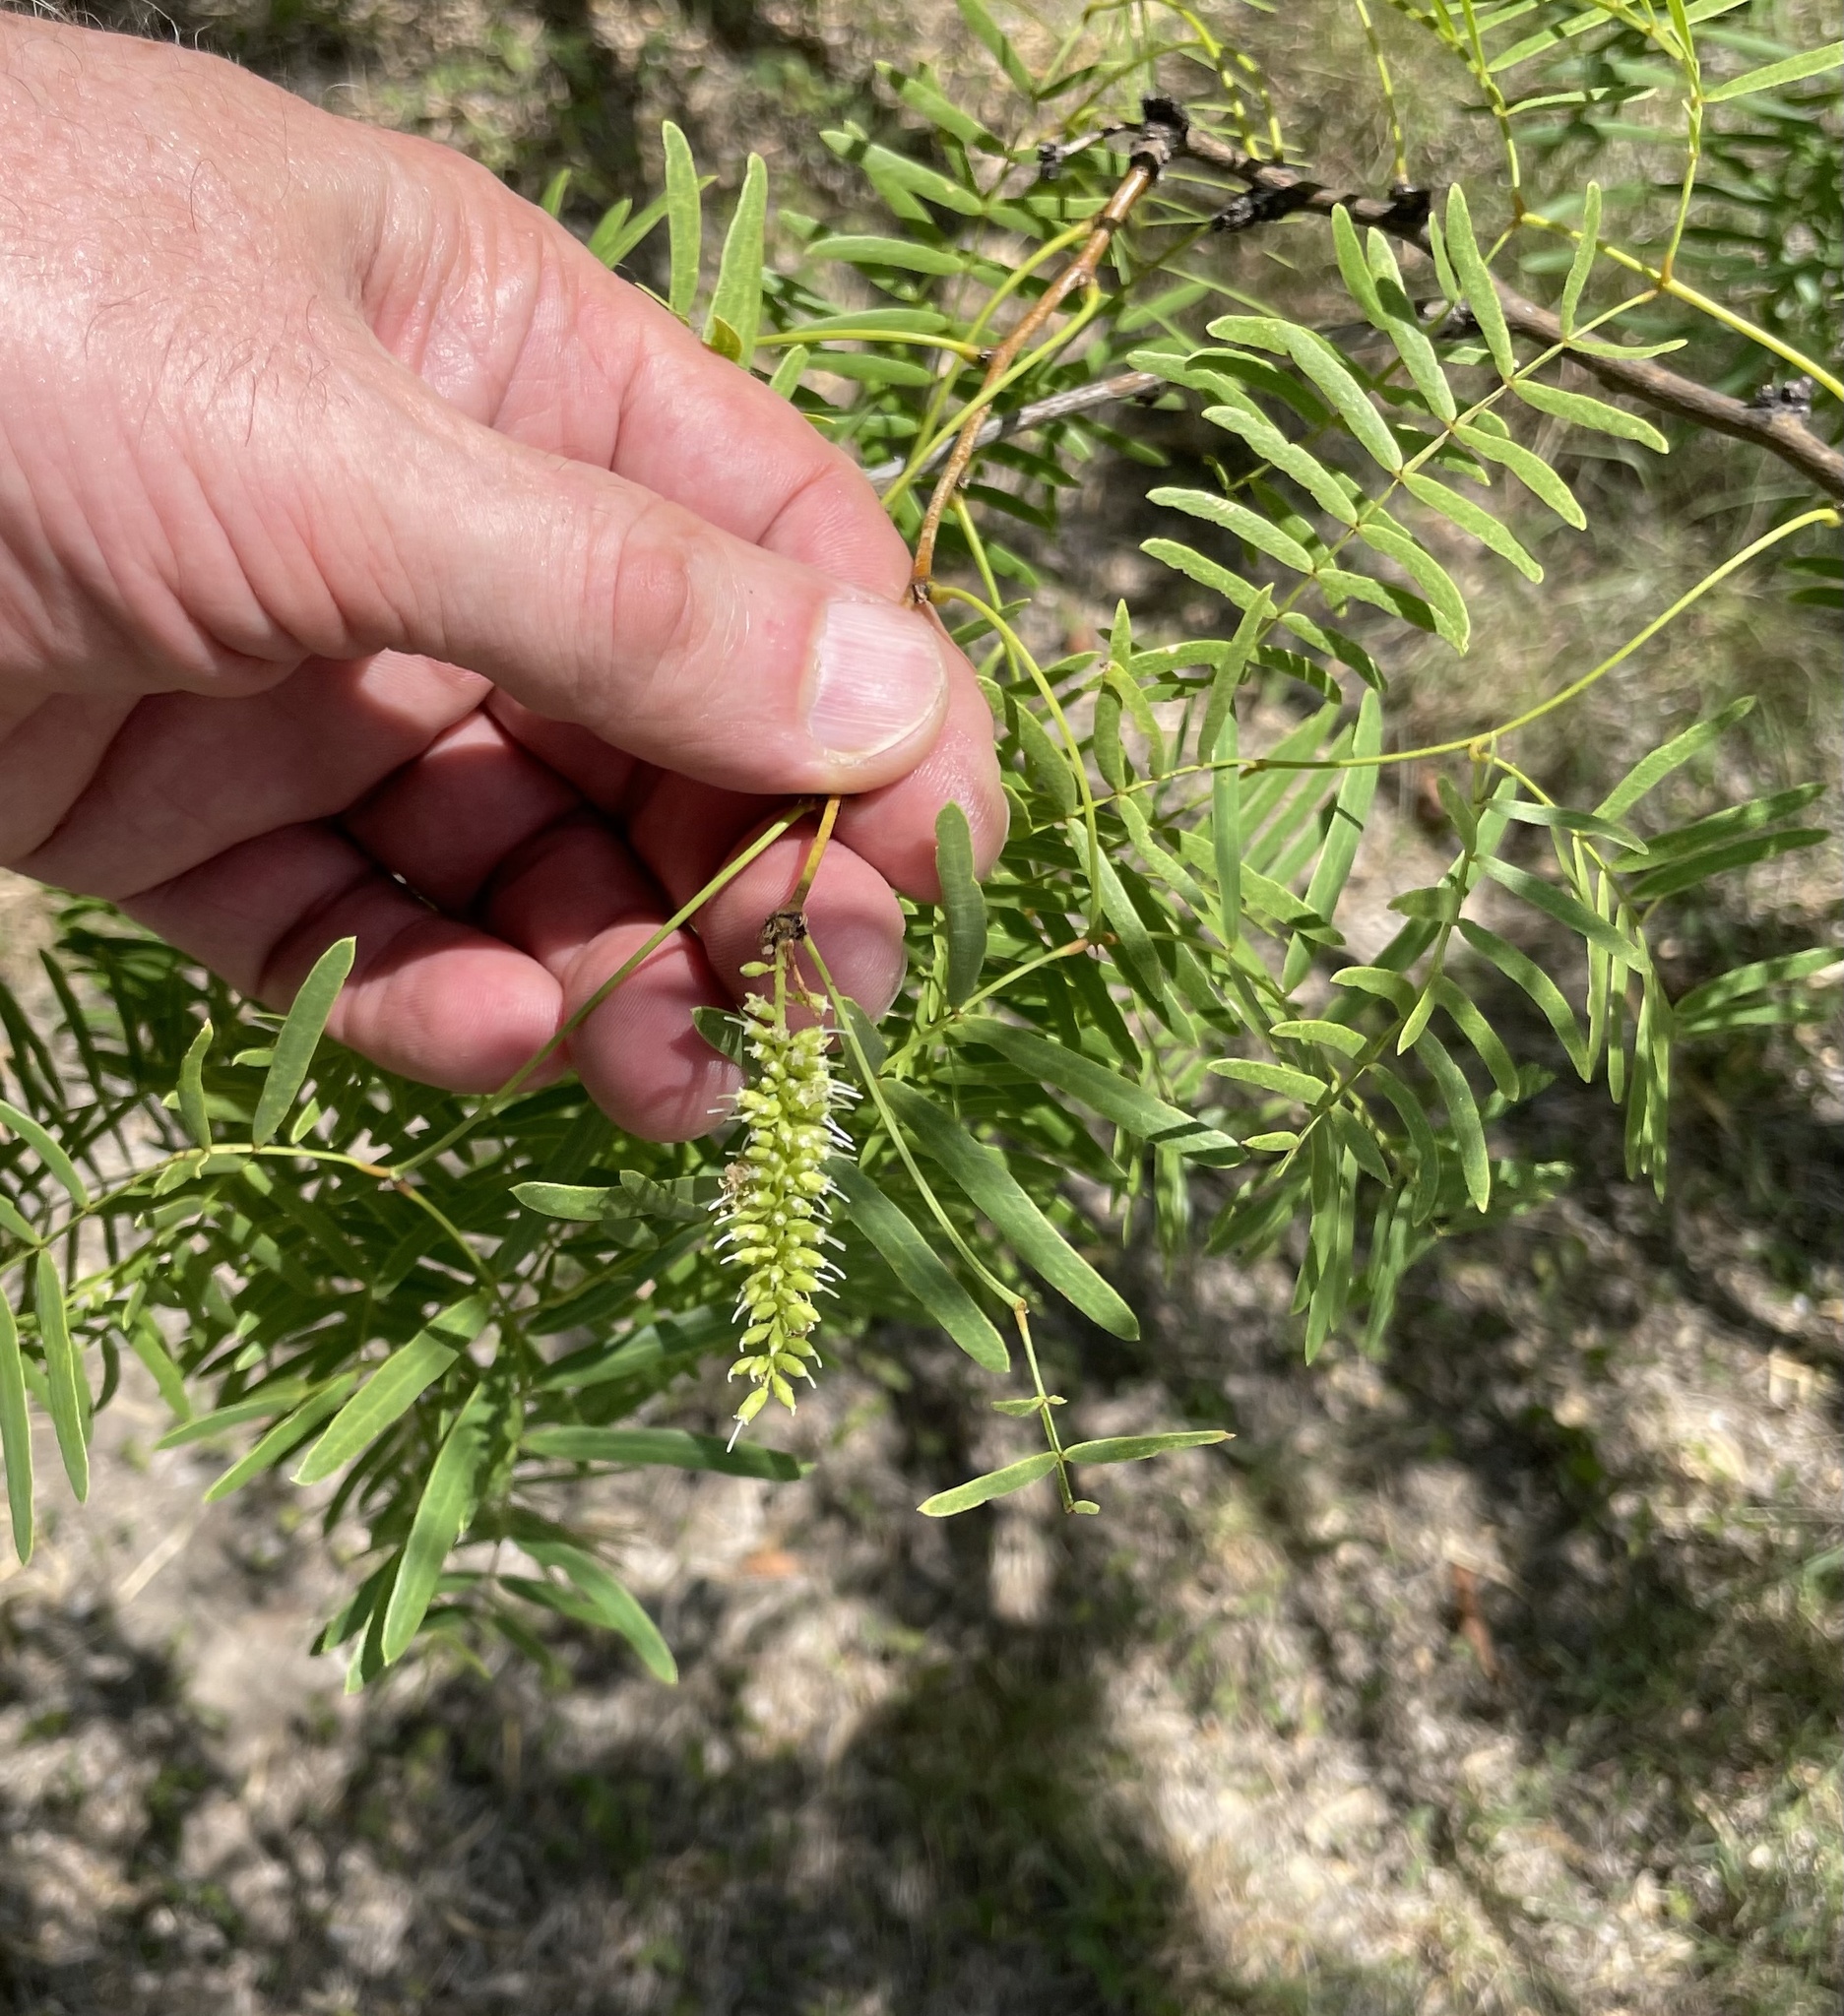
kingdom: Plantae
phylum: Tracheophyta
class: Magnoliopsida
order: Fabales
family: Fabaceae
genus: Prosopis
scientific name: Prosopis glandulosa
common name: Honey mesquite
